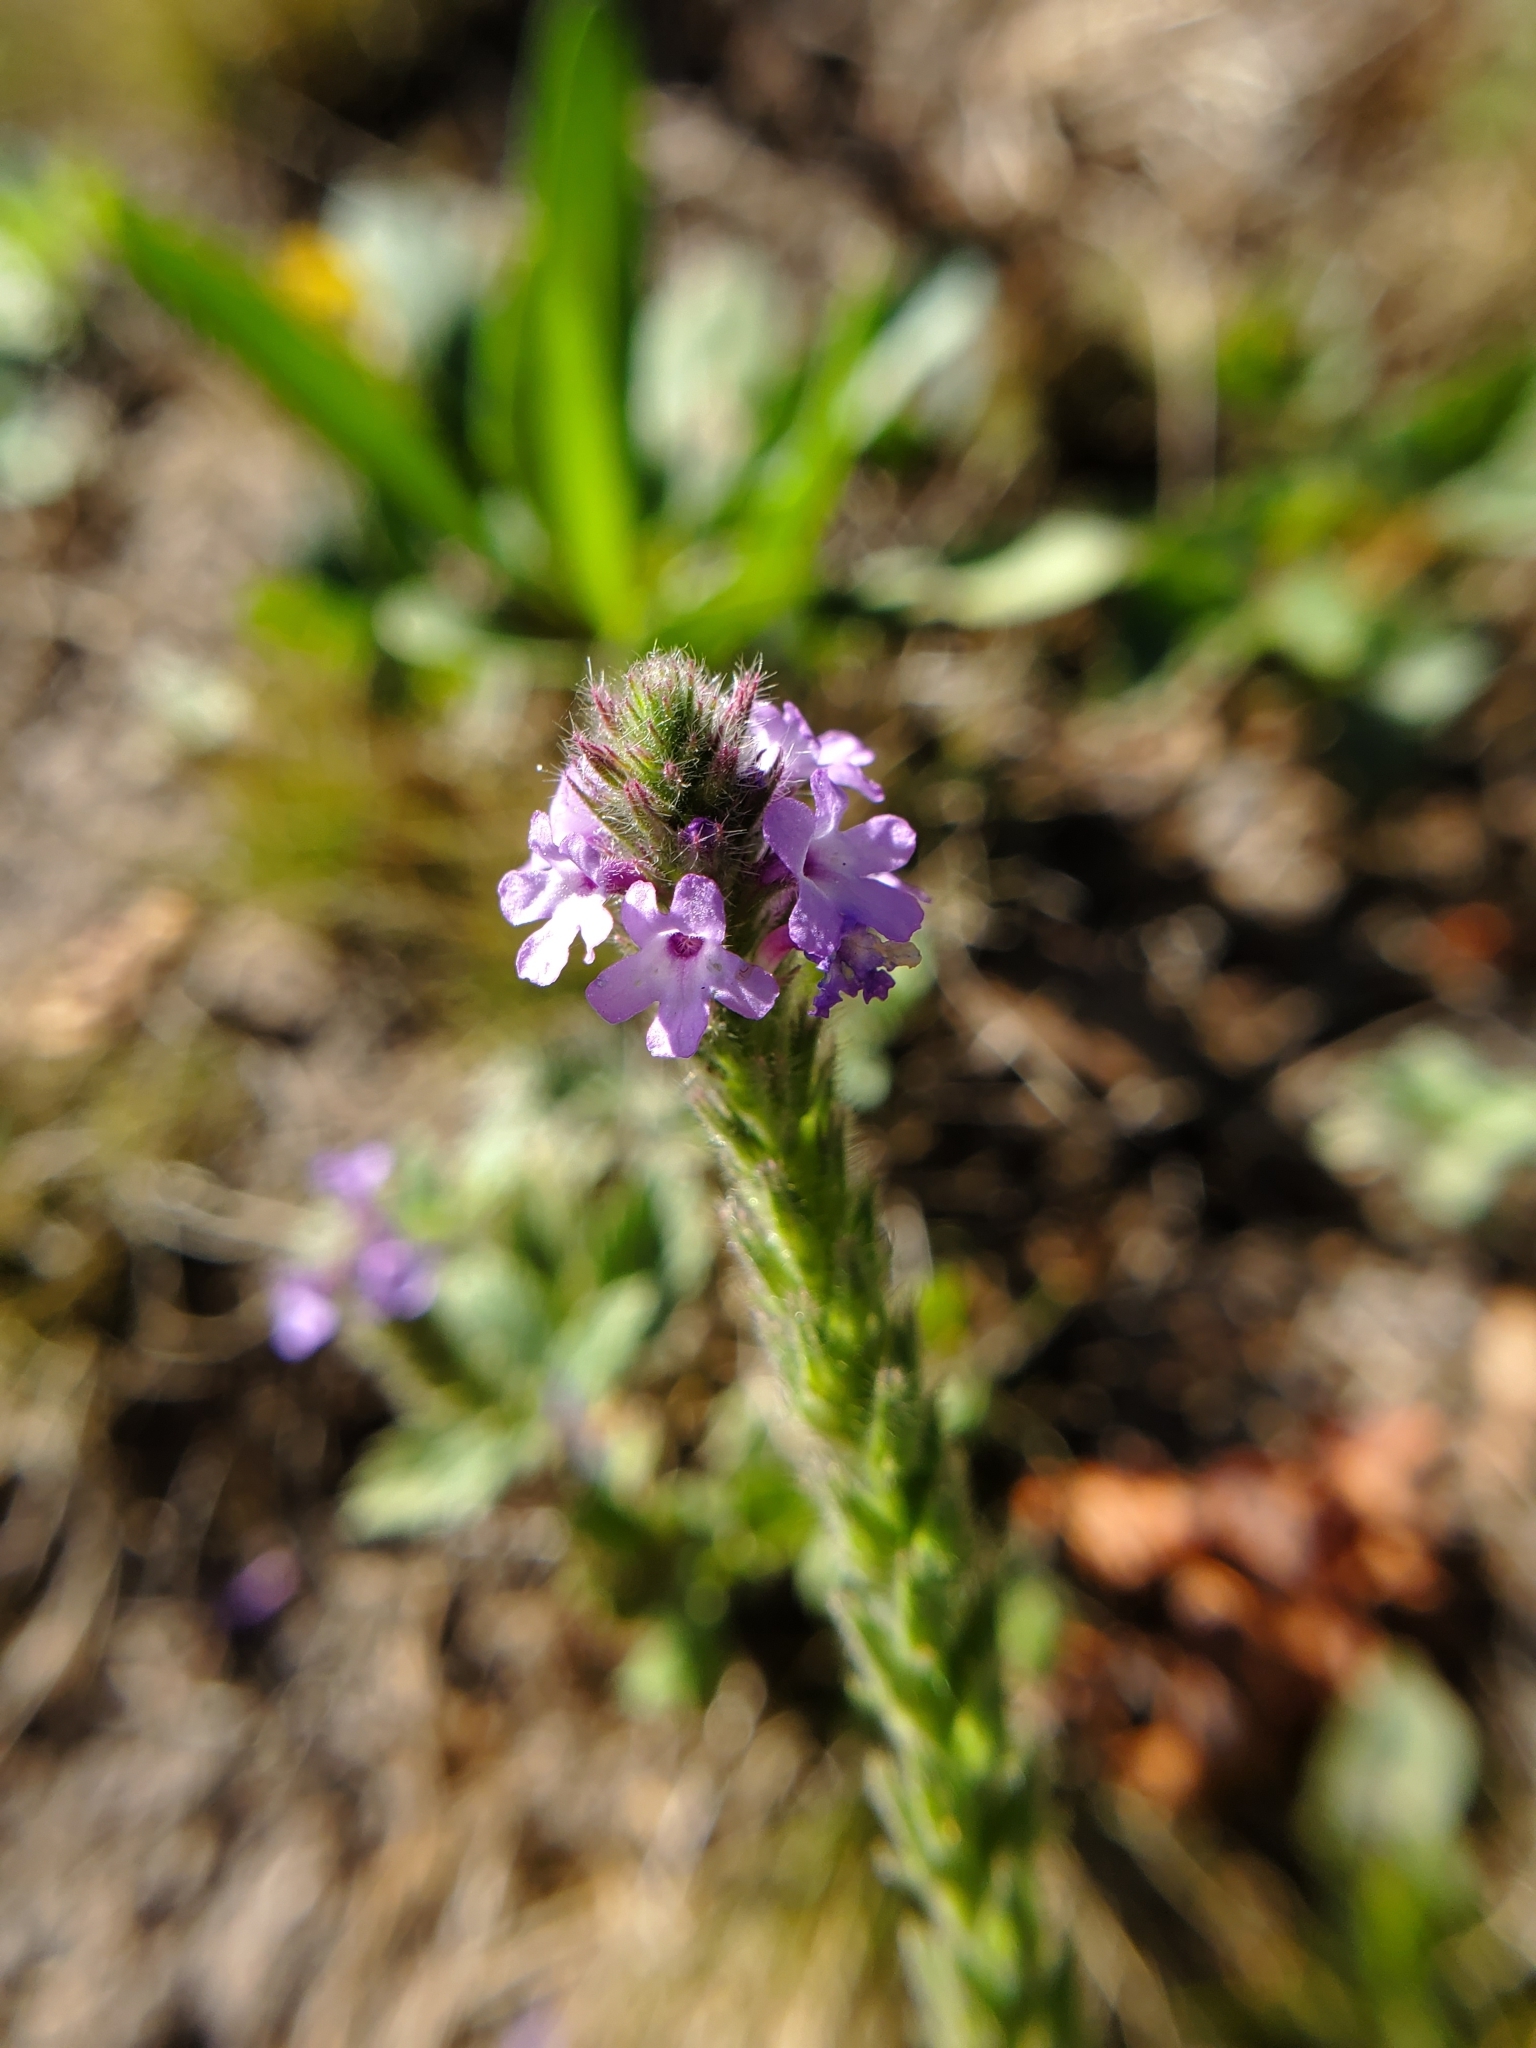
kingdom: Plantae
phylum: Tracheophyta
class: Magnoliopsida
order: Lamiales
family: Verbenaceae
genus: Verbena
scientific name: Verbena lasiostachys
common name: Vervain
